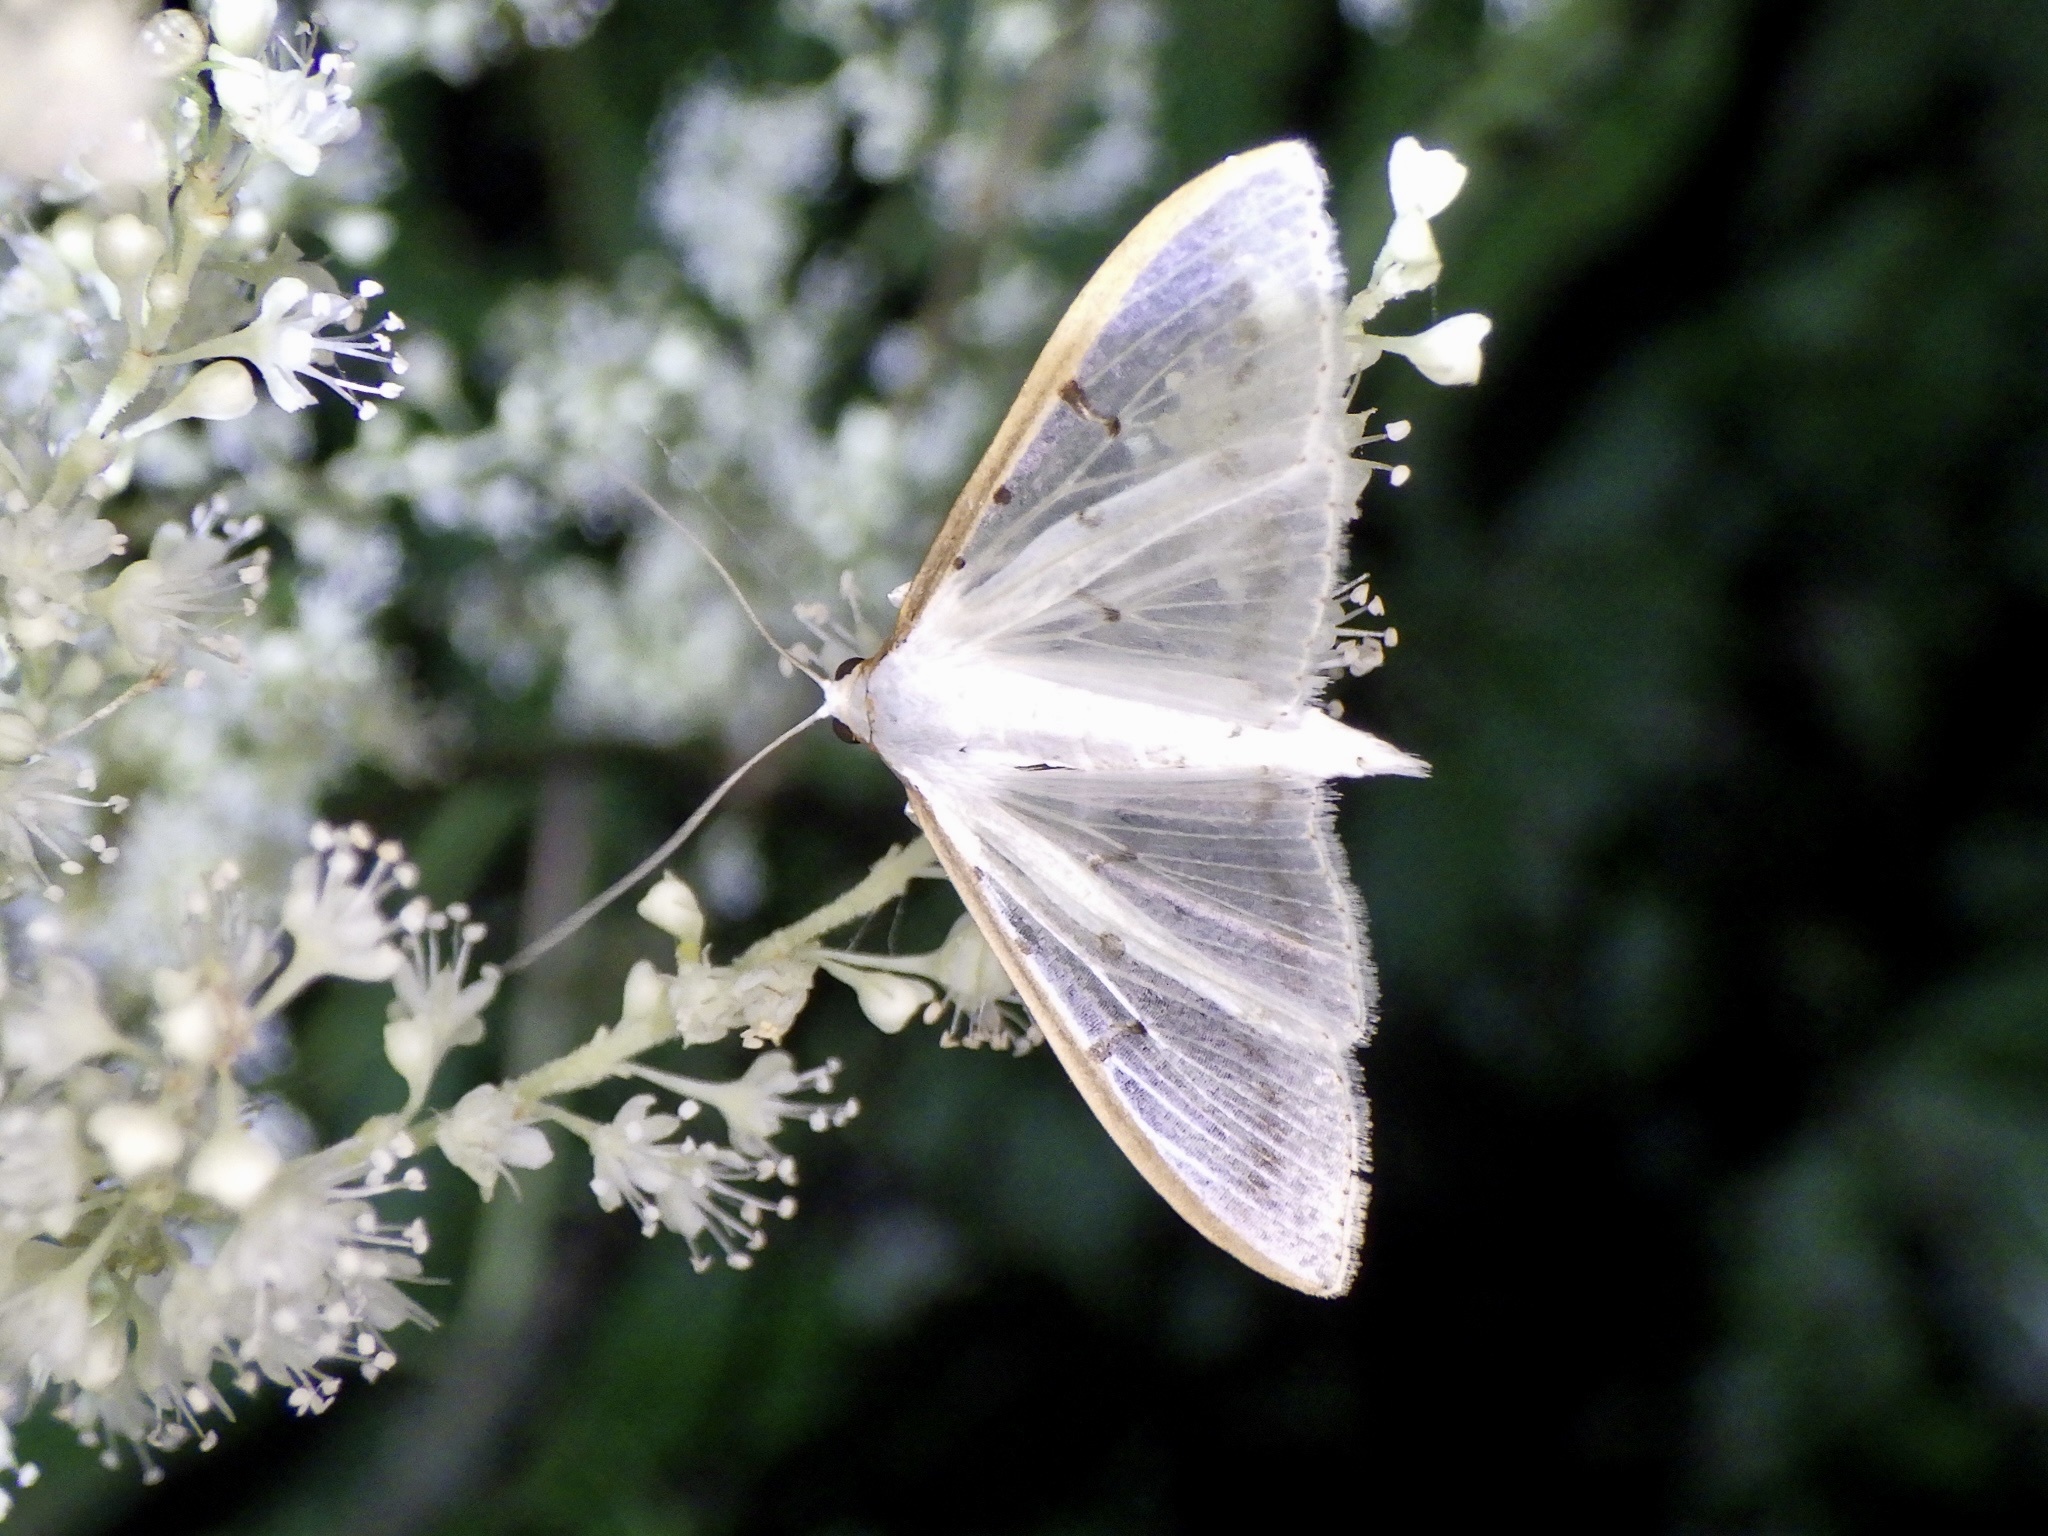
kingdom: Animalia
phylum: Arthropoda
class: Insecta
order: Lepidoptera
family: Crambidae
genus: Palpita
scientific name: Palpita nigropunctalis
